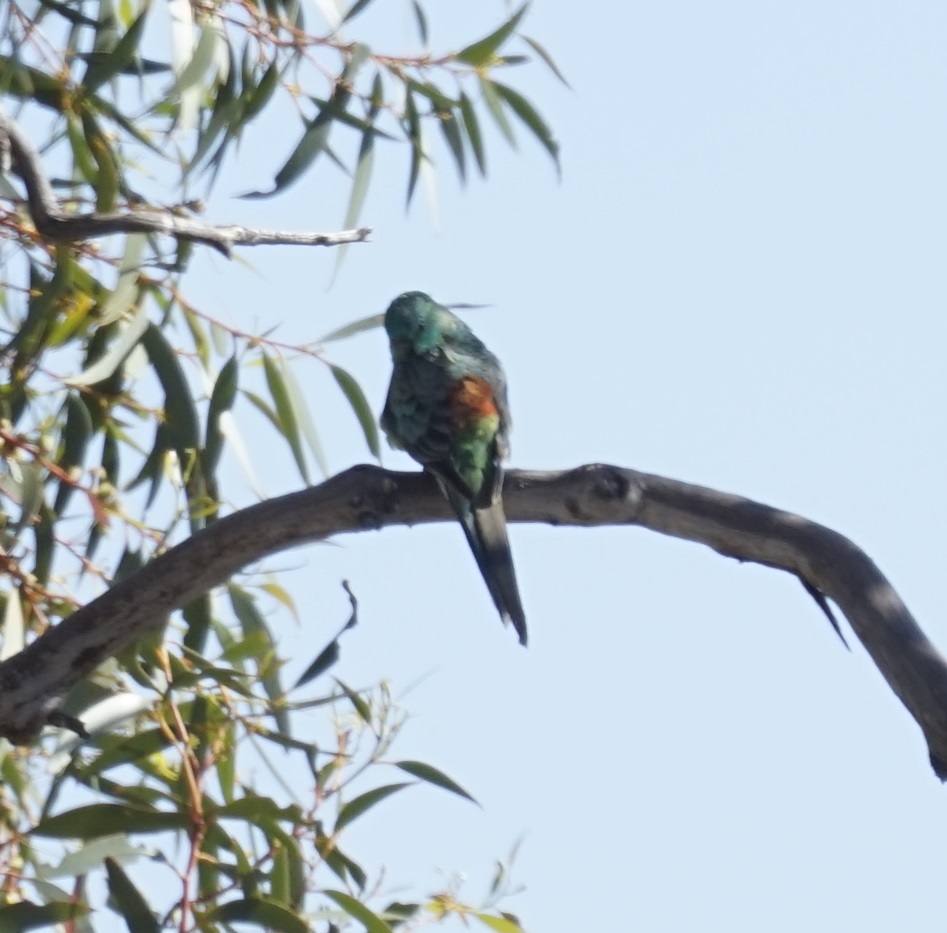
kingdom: Animalia
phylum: Chordata
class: Aves
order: Psittaciformes
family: Psittacidae
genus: Psephotus
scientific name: Psephotus haematonotus
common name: Red-rumped parrot
